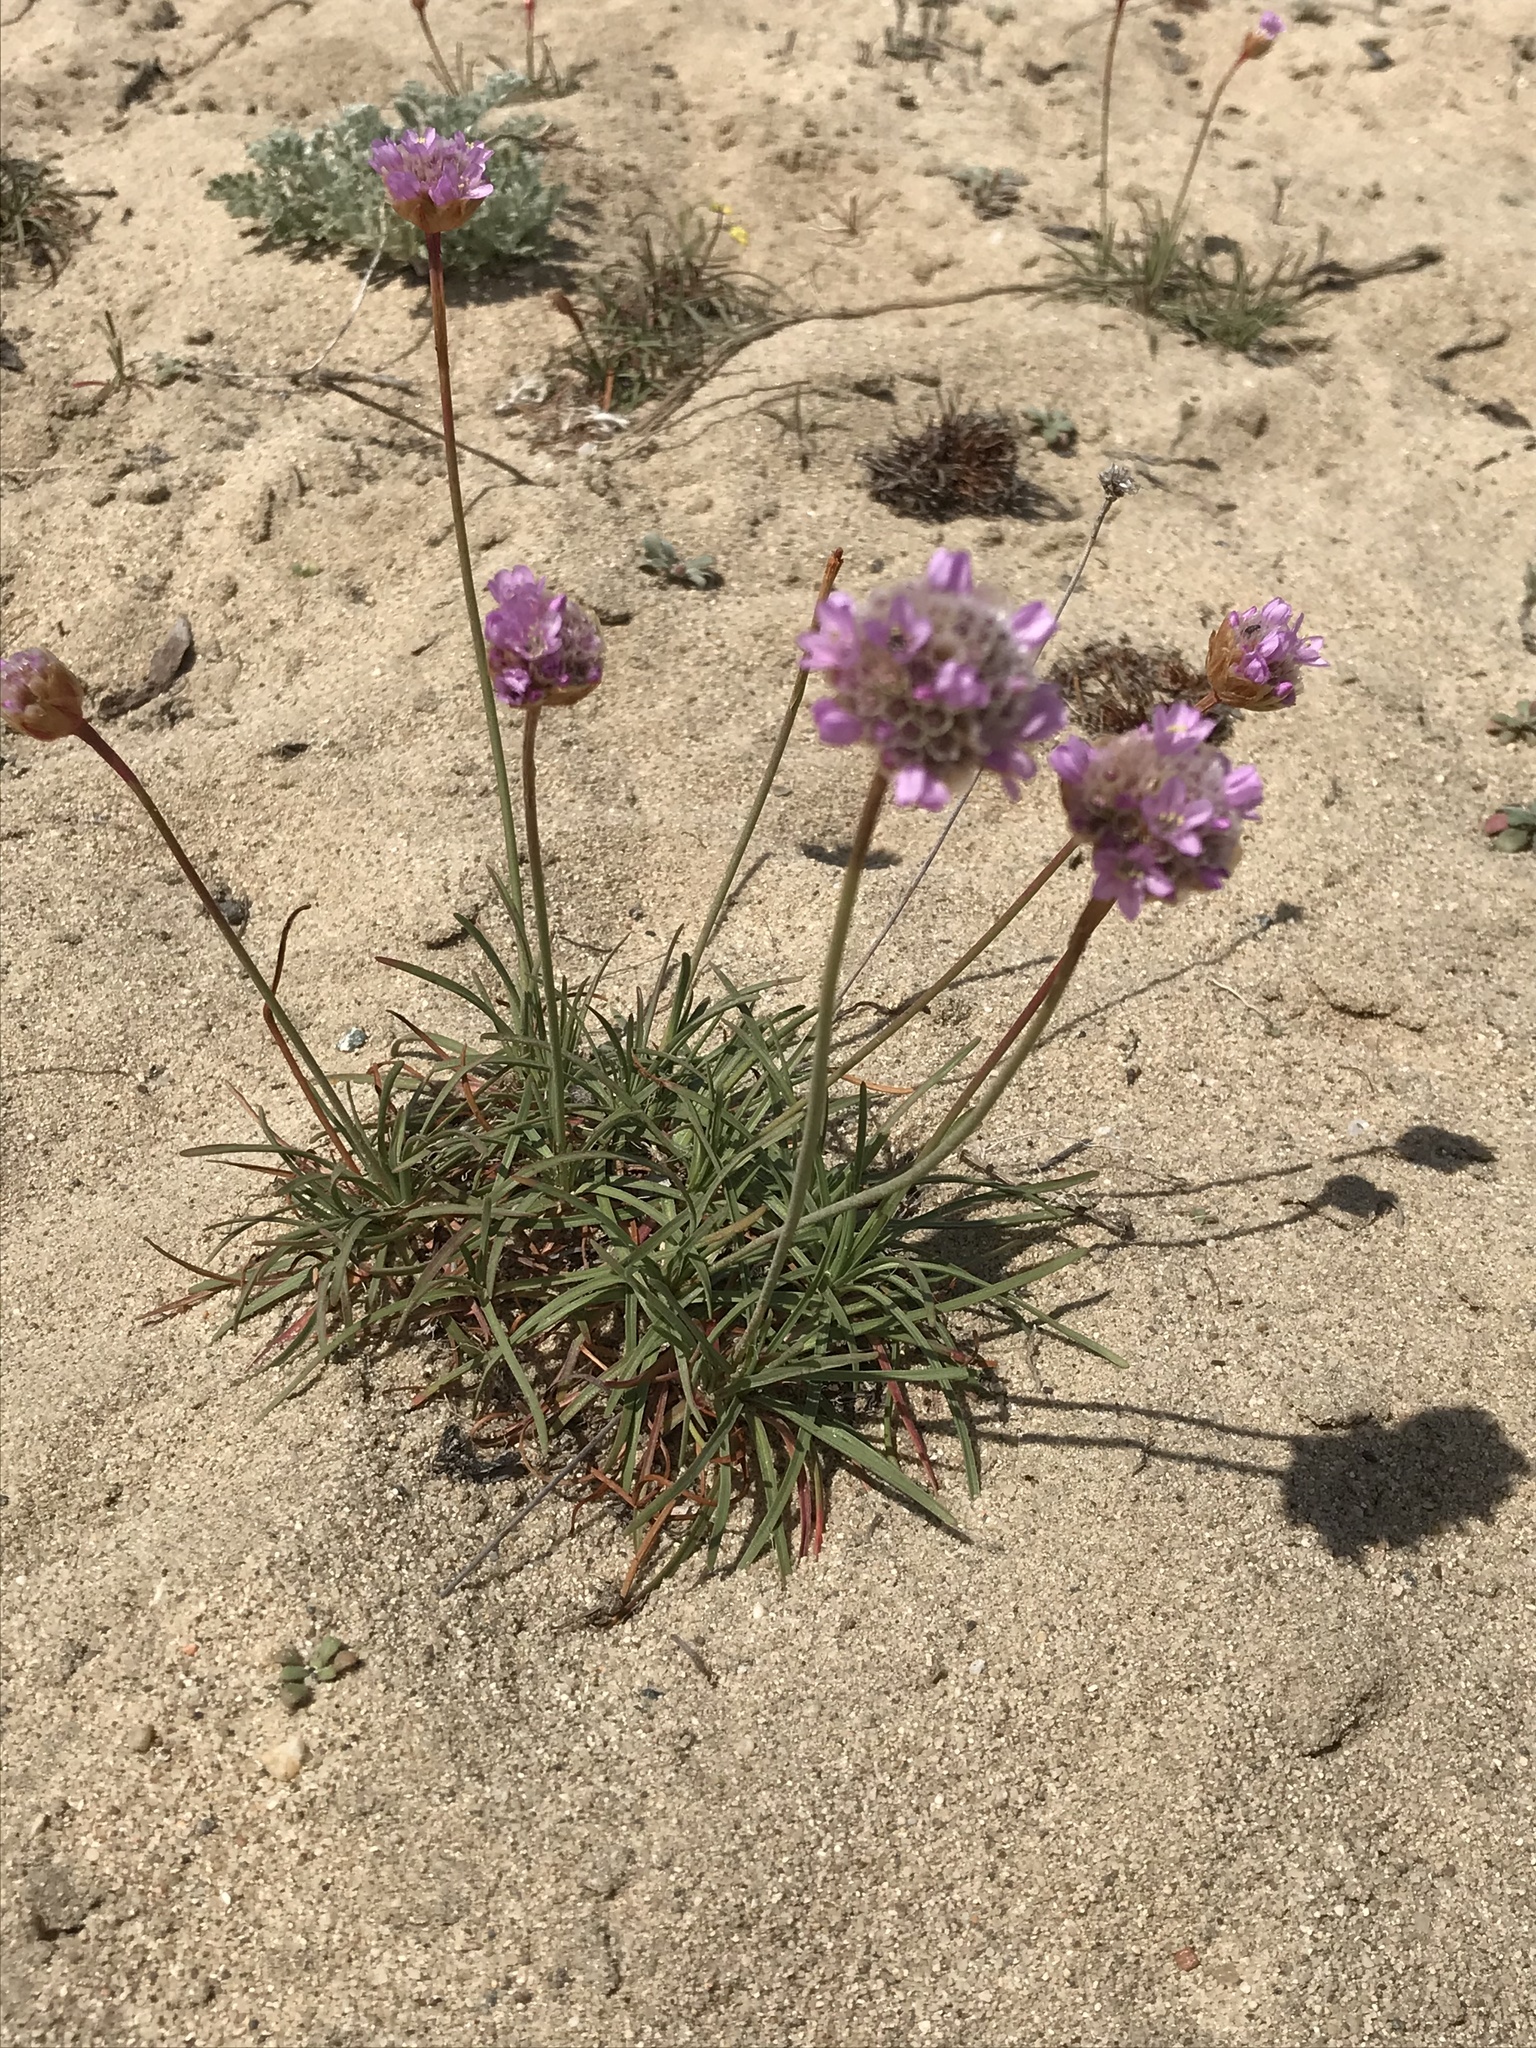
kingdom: Plantae
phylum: Tracheophyta
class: Magnoliopsida
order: Caryophyllales
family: Plumbaginaceae
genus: Armeria
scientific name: Armeria maritima
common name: Thrift
